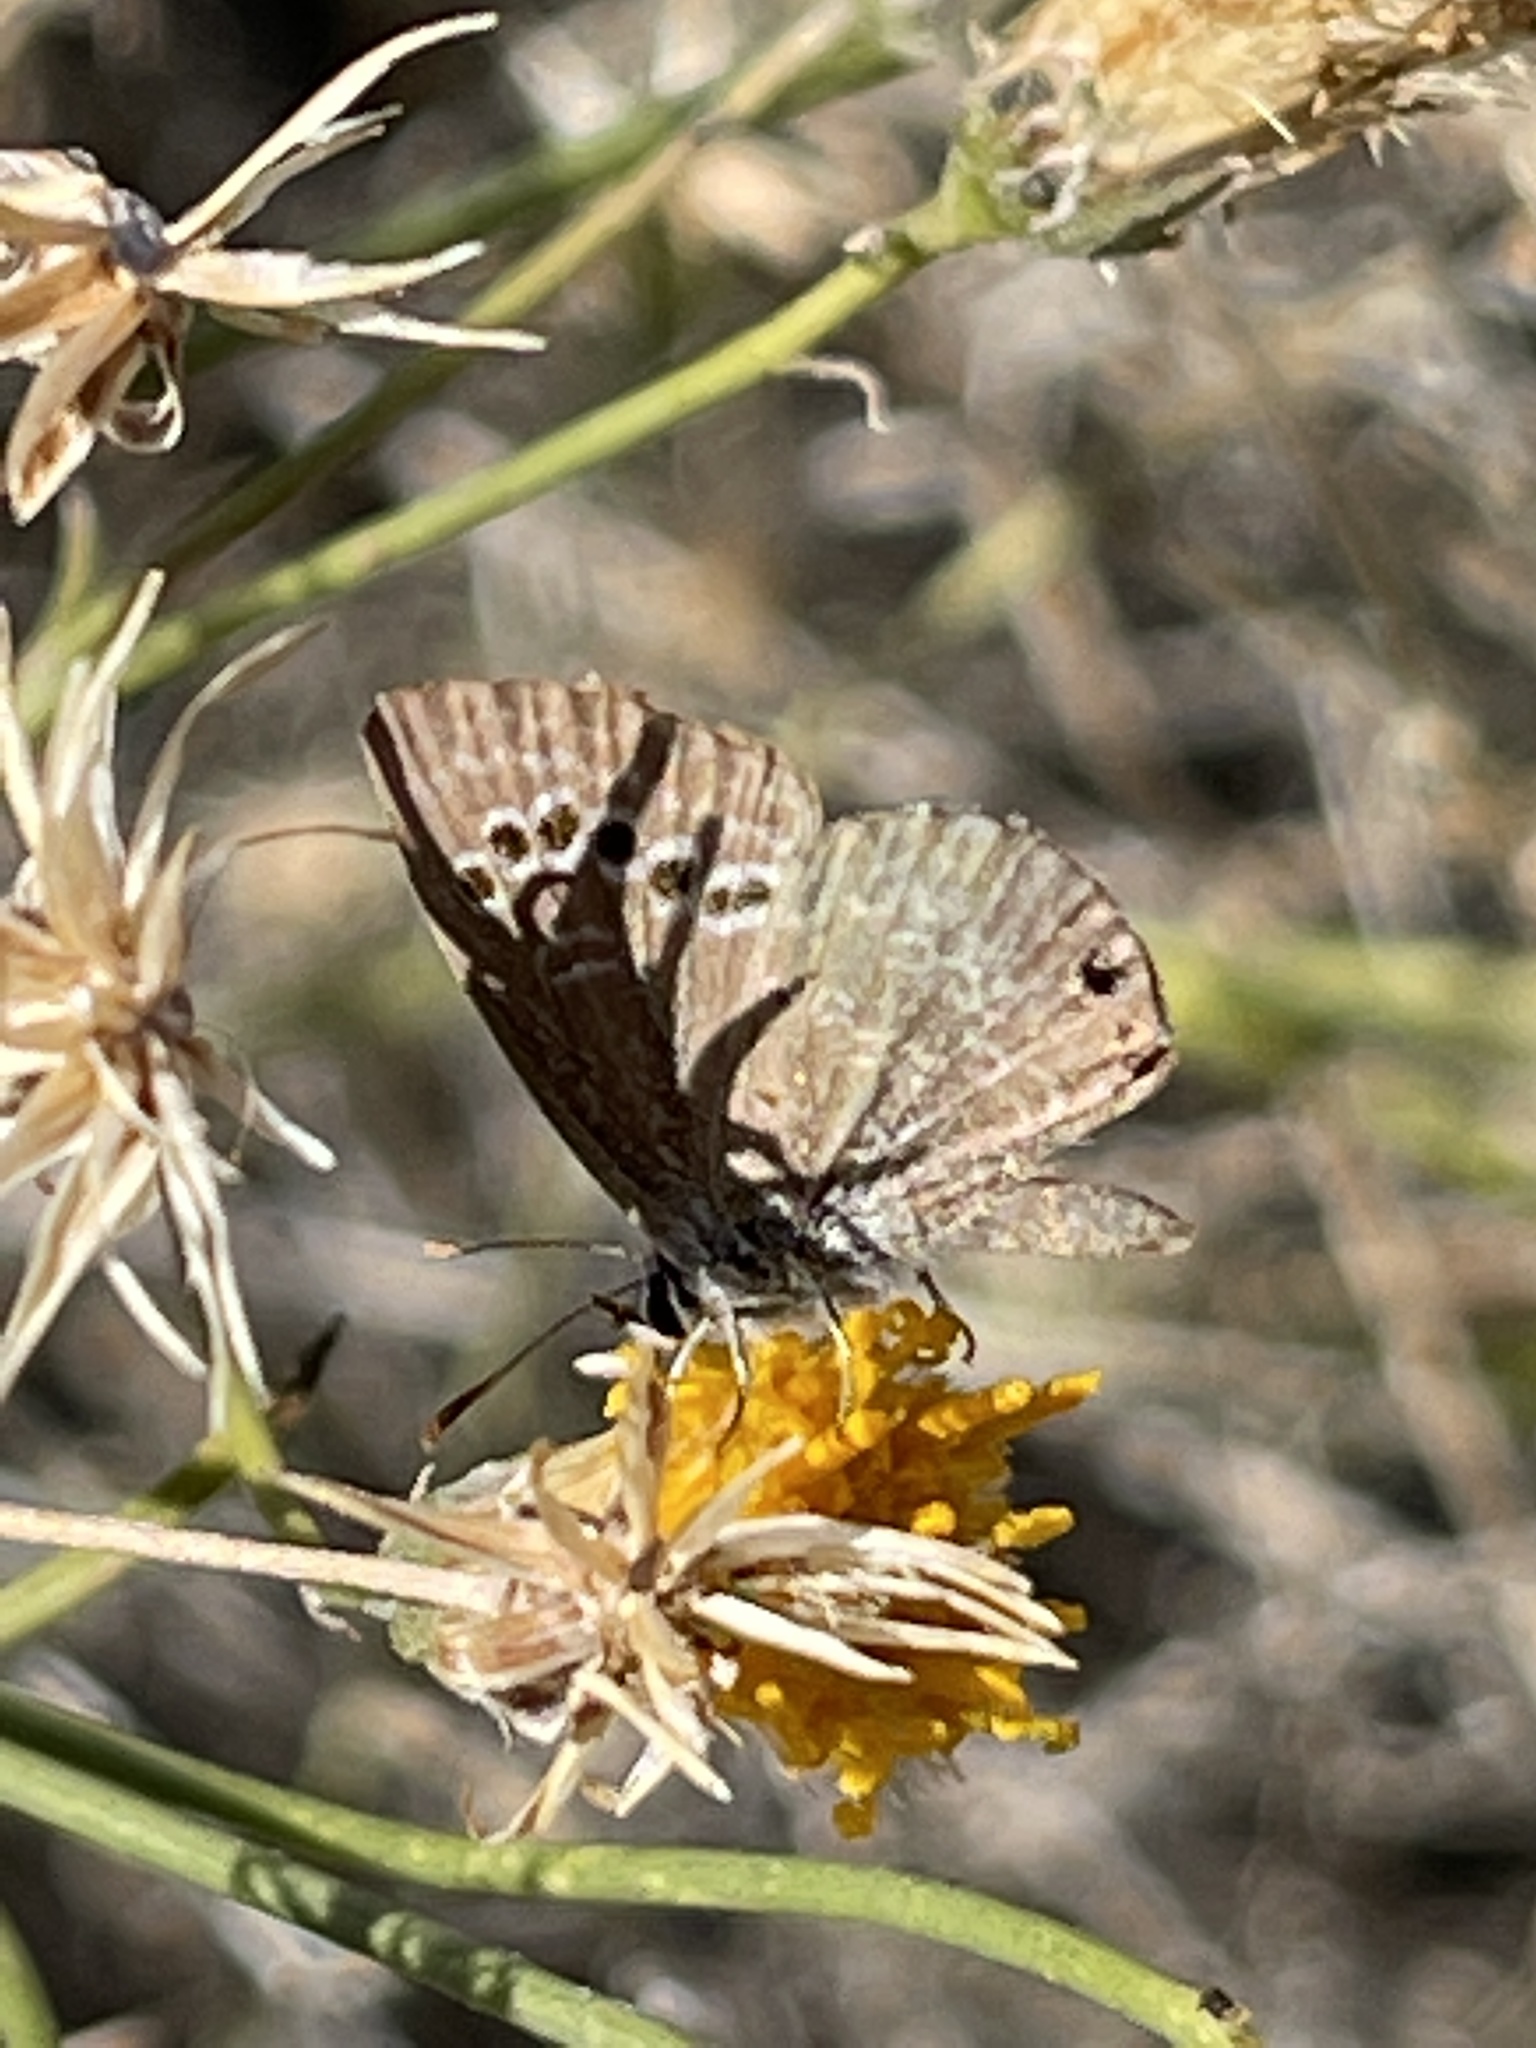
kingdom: Animalia
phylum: Arthropoda
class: Insecta
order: Lepidoptera
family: Lycaenidae
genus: Echinargus
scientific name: Echinargus isola
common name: Reakirt's blue
